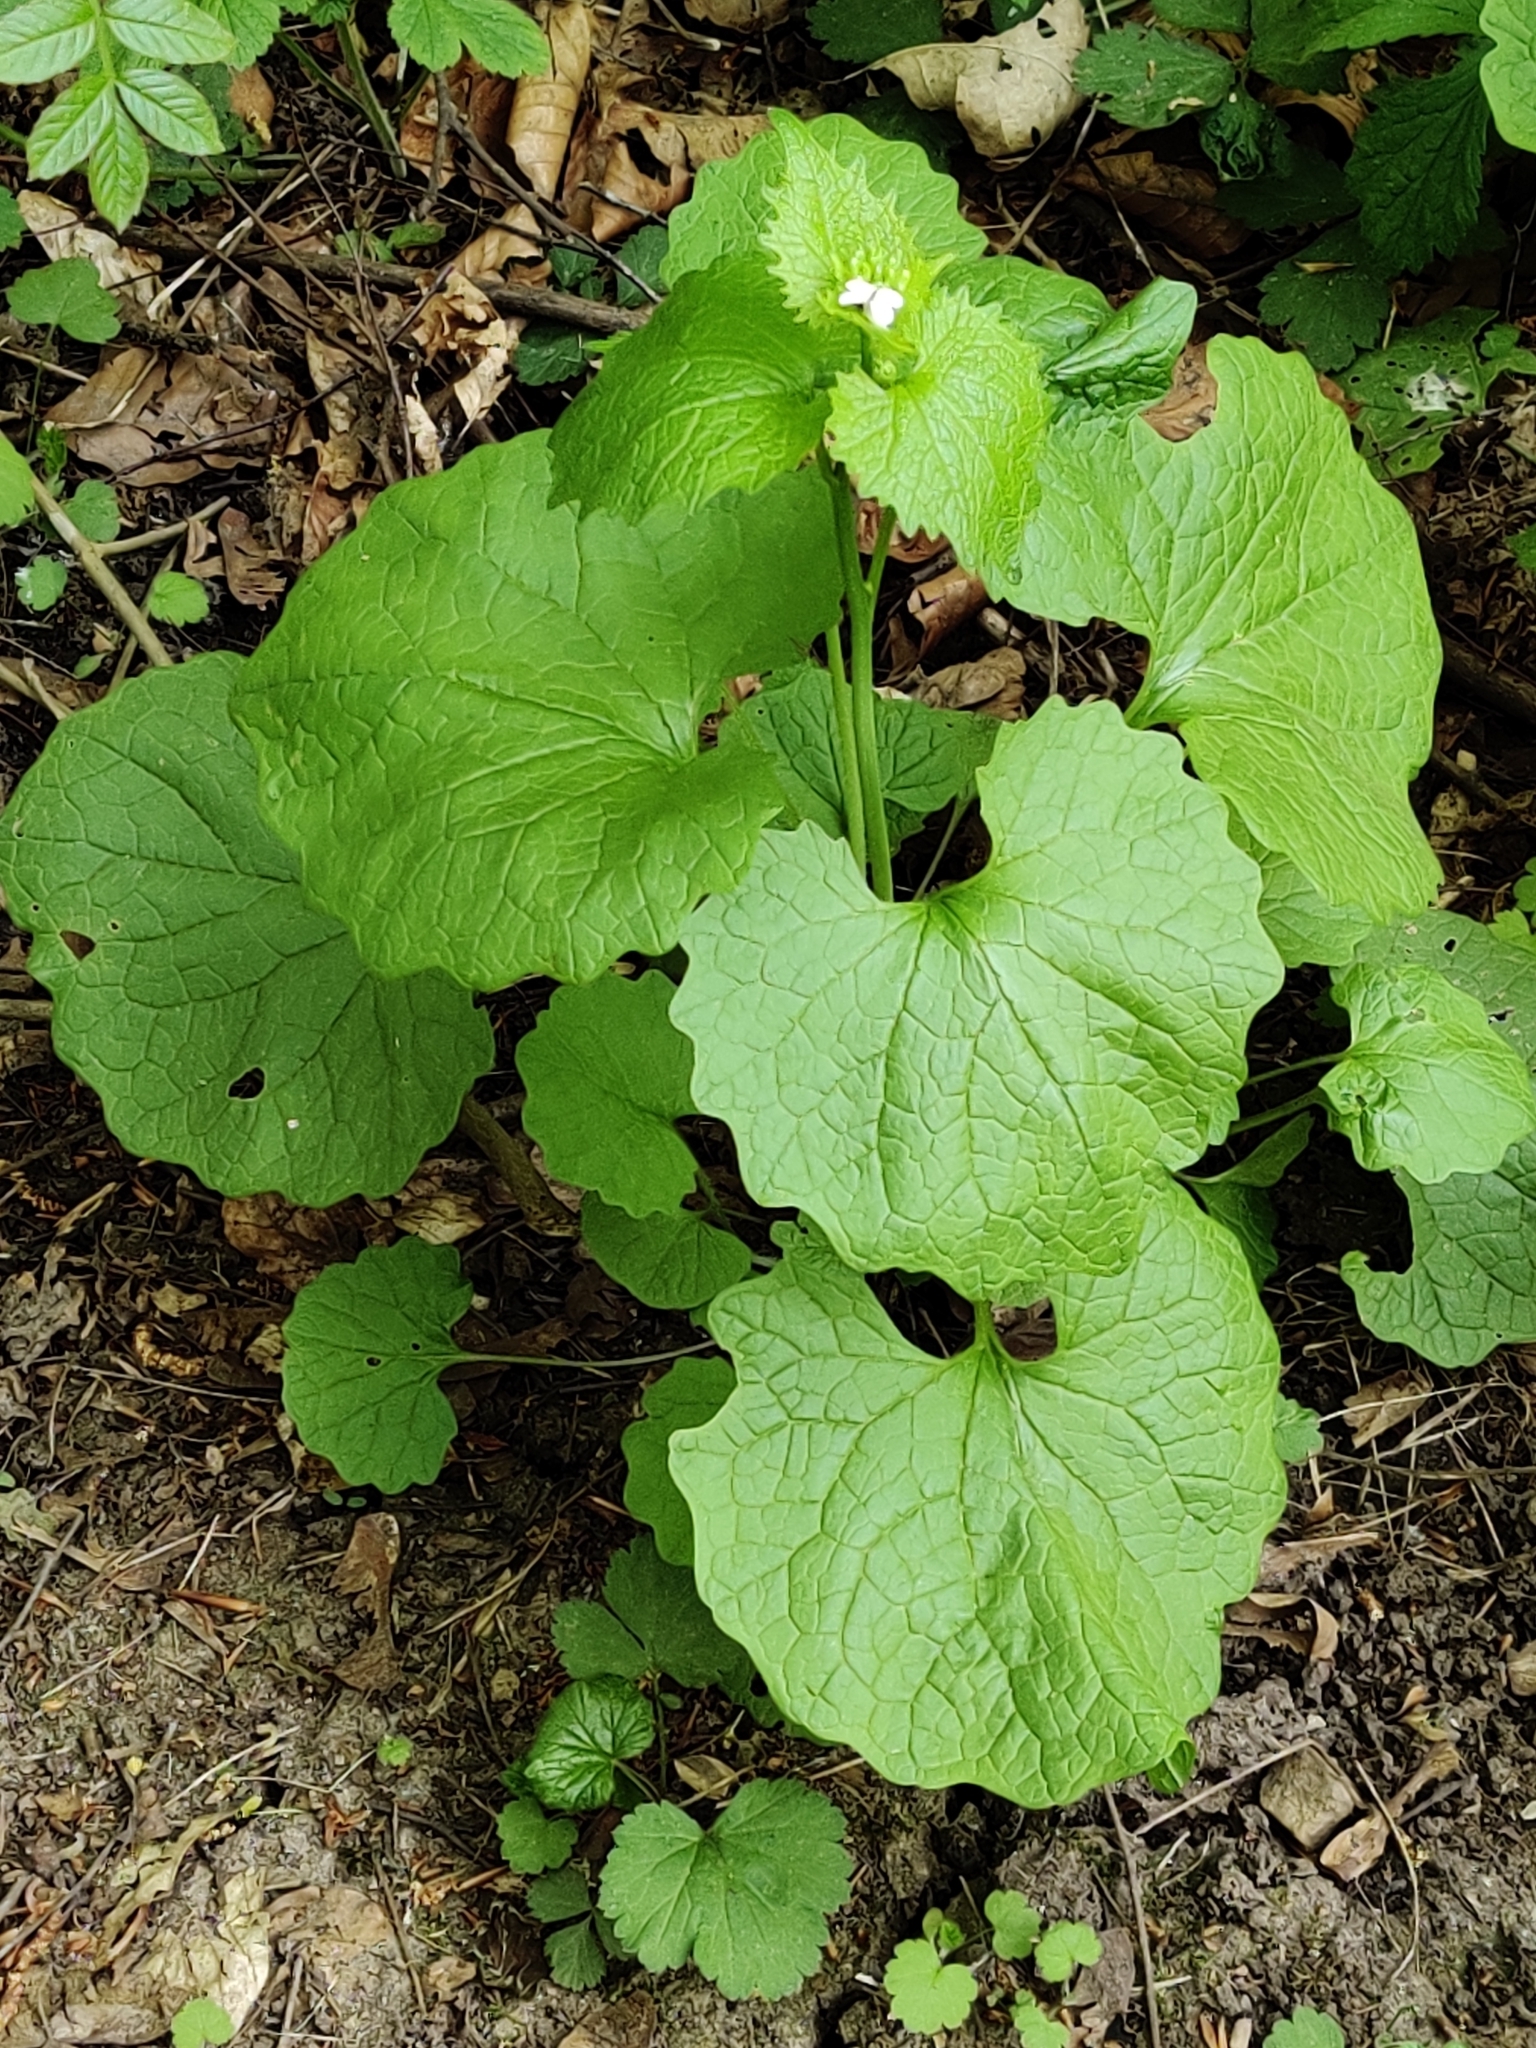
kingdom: Plantae
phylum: Tracheophyta
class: Magnoliopsida
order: Brassicales
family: Brassicaceae
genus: Alliaria
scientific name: Alliaria petiolata
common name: Garlic mustard
